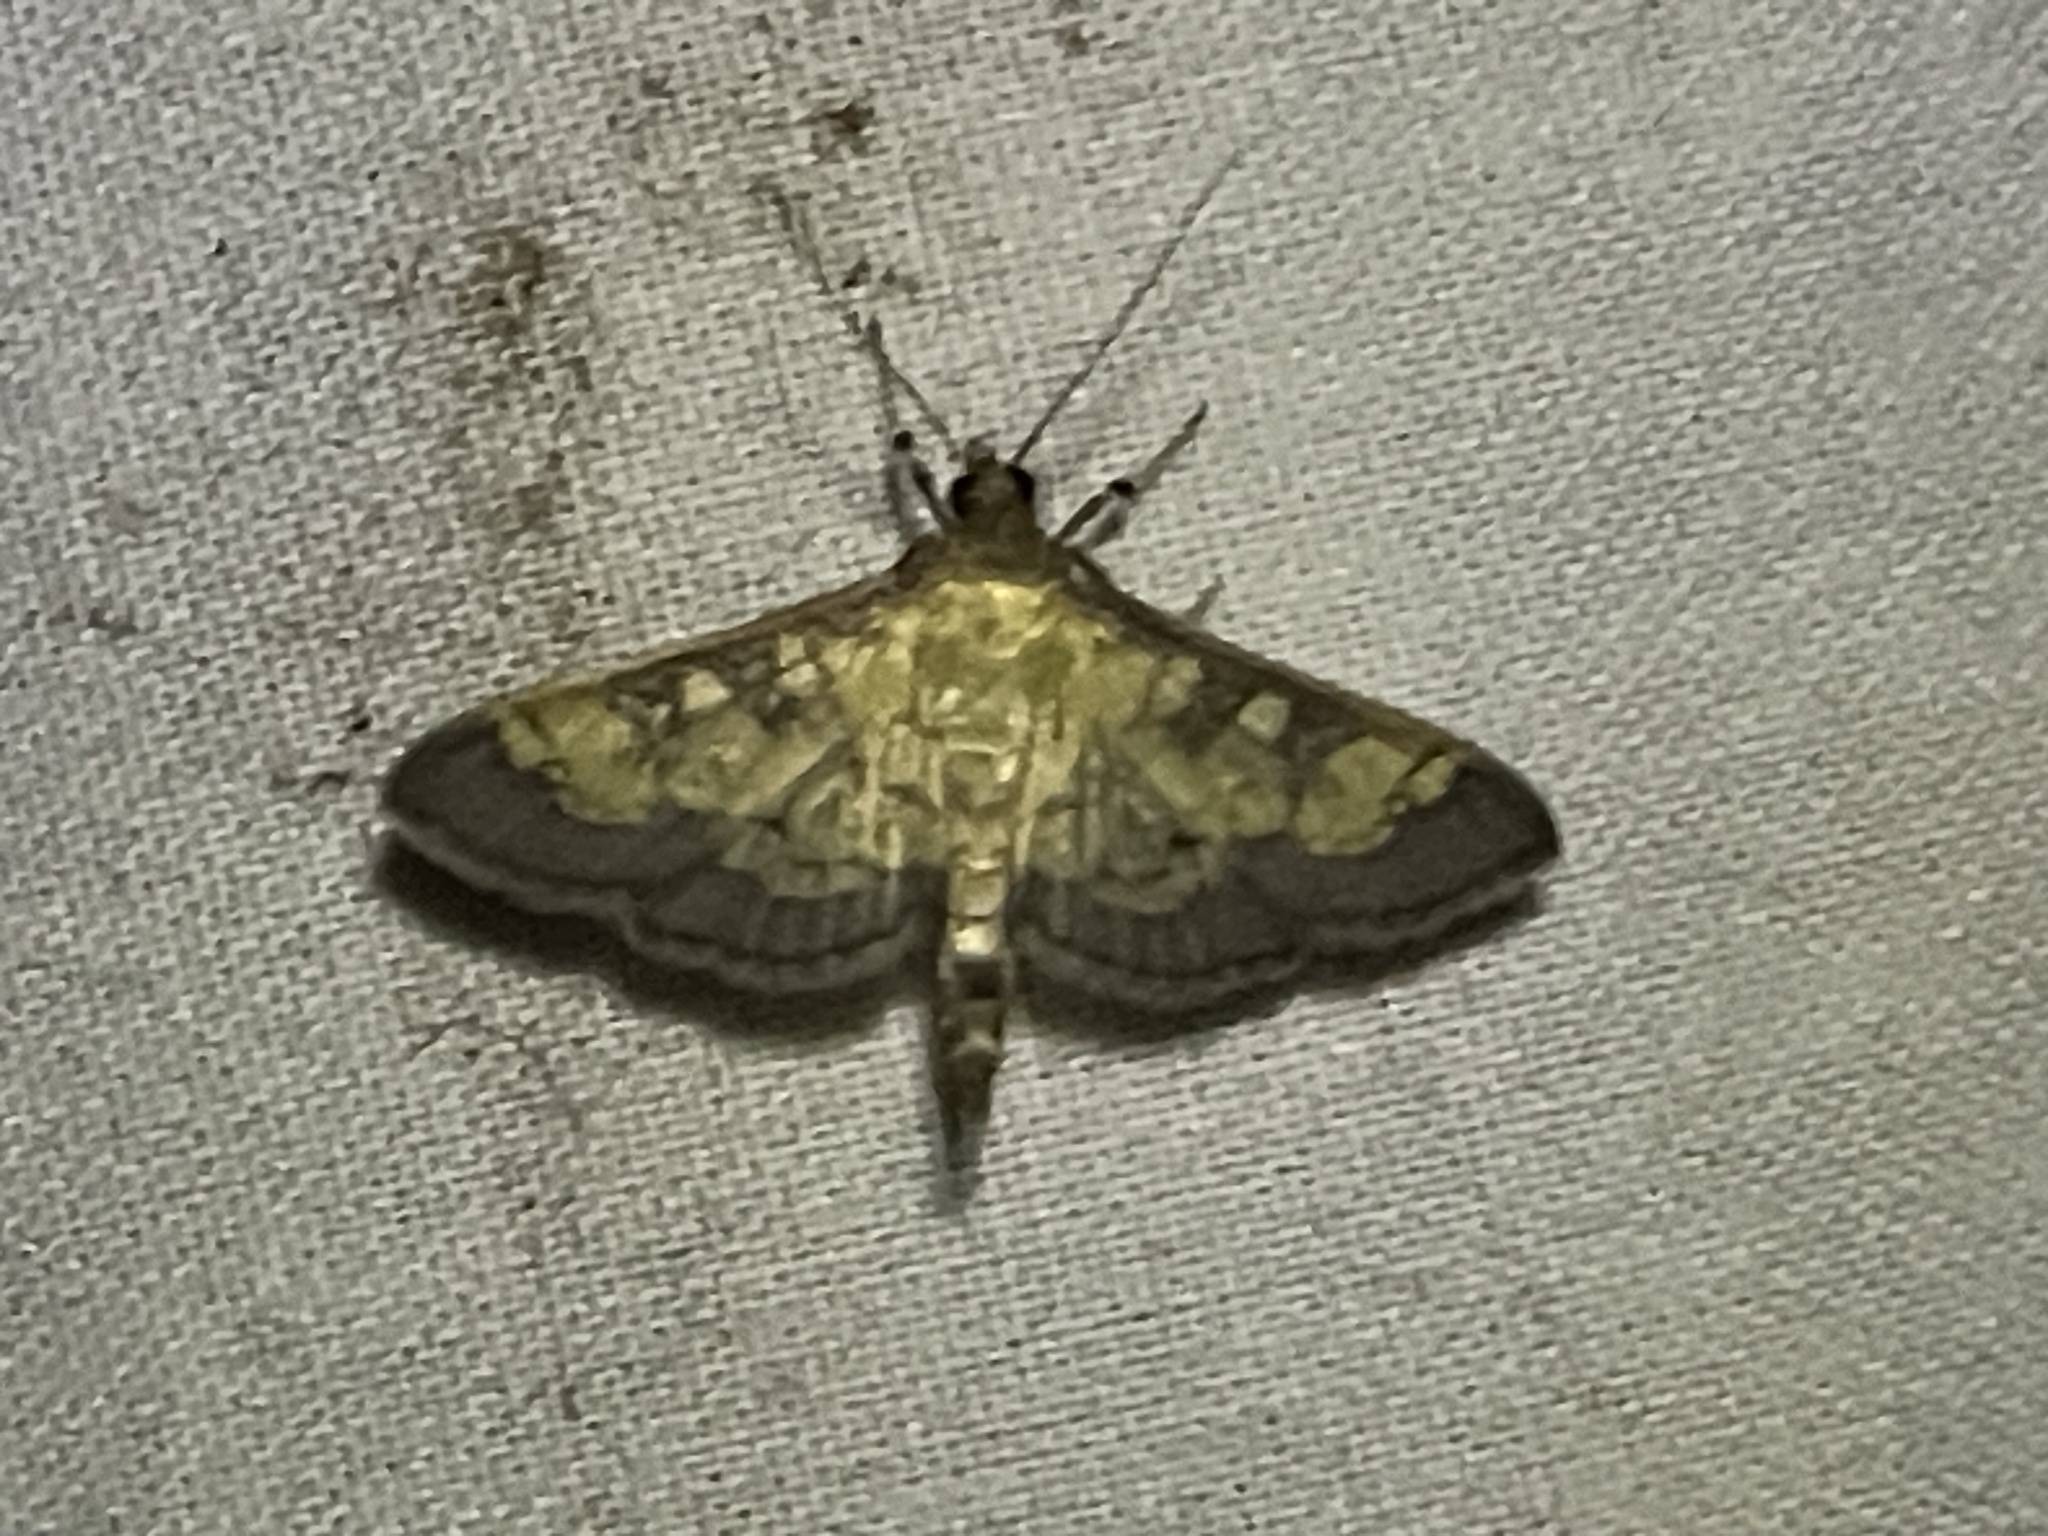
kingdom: Animalia
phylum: Arthropoda
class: Insecta
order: Lepidoptera
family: Crambidae
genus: Epipagis
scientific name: Epipagis adipaloides
